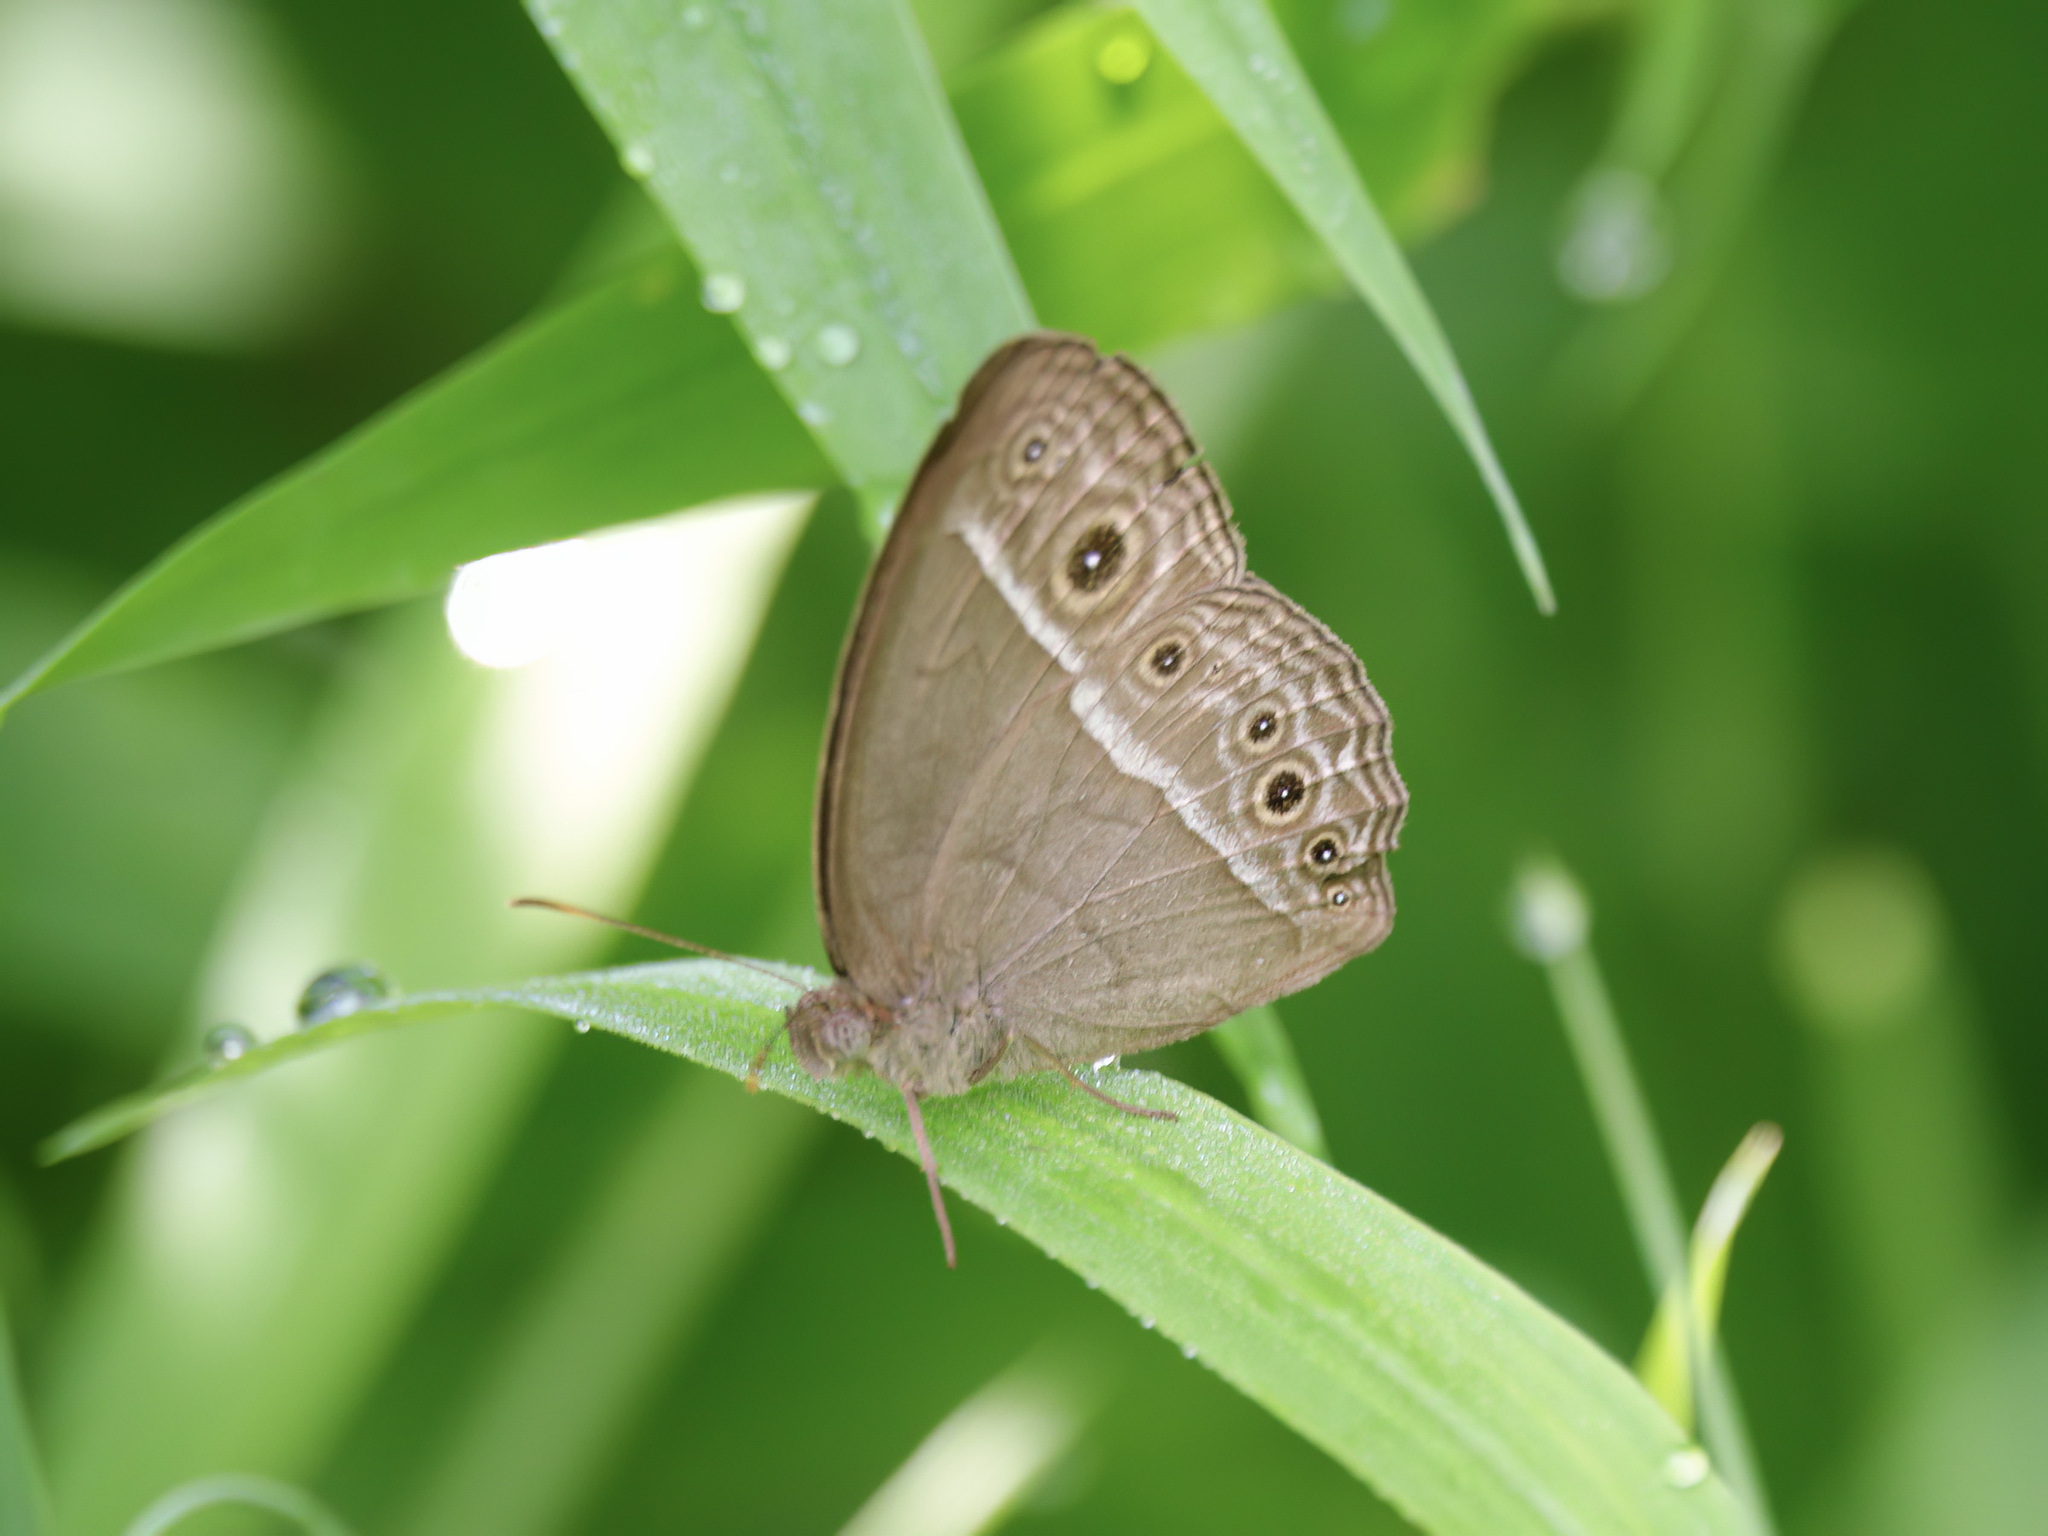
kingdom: Animalia
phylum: Arthropoda
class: Insecta
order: Lepidoptera
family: Nymphalidae
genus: Mycalesis
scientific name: Mycalesis mineus
